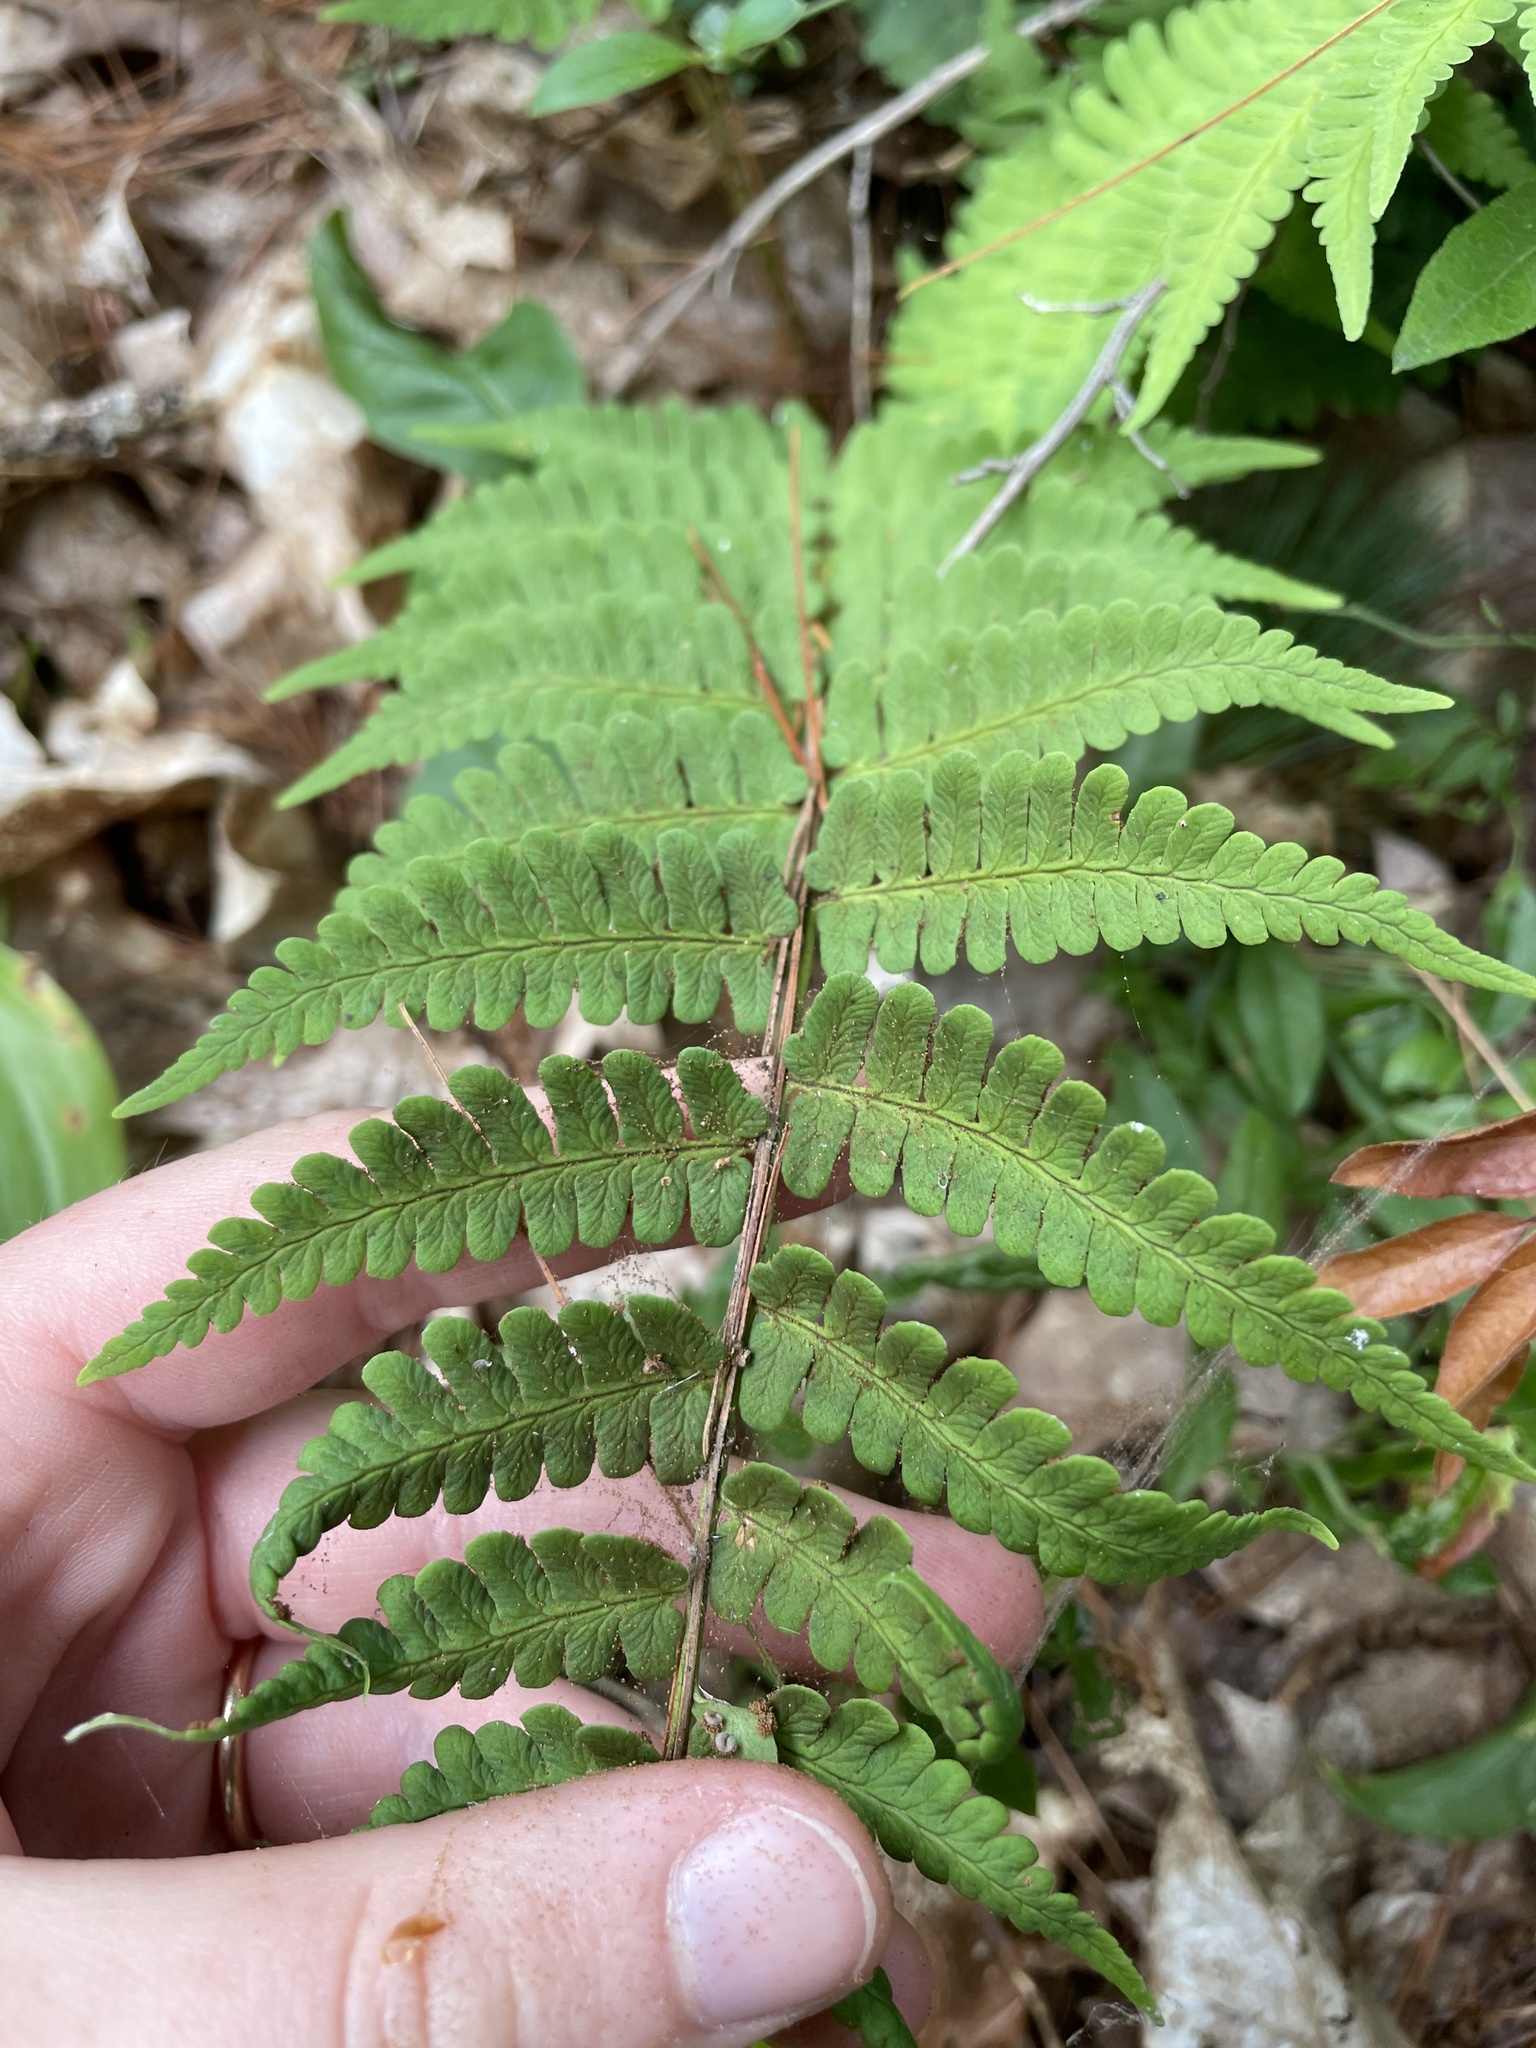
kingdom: Plantae
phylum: Tracheophyta
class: Polypodiopsida
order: Polypodiales
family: Dryopteridaceae
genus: Dryopteris
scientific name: Dryopteris marginalis
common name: Marginal wood fern
